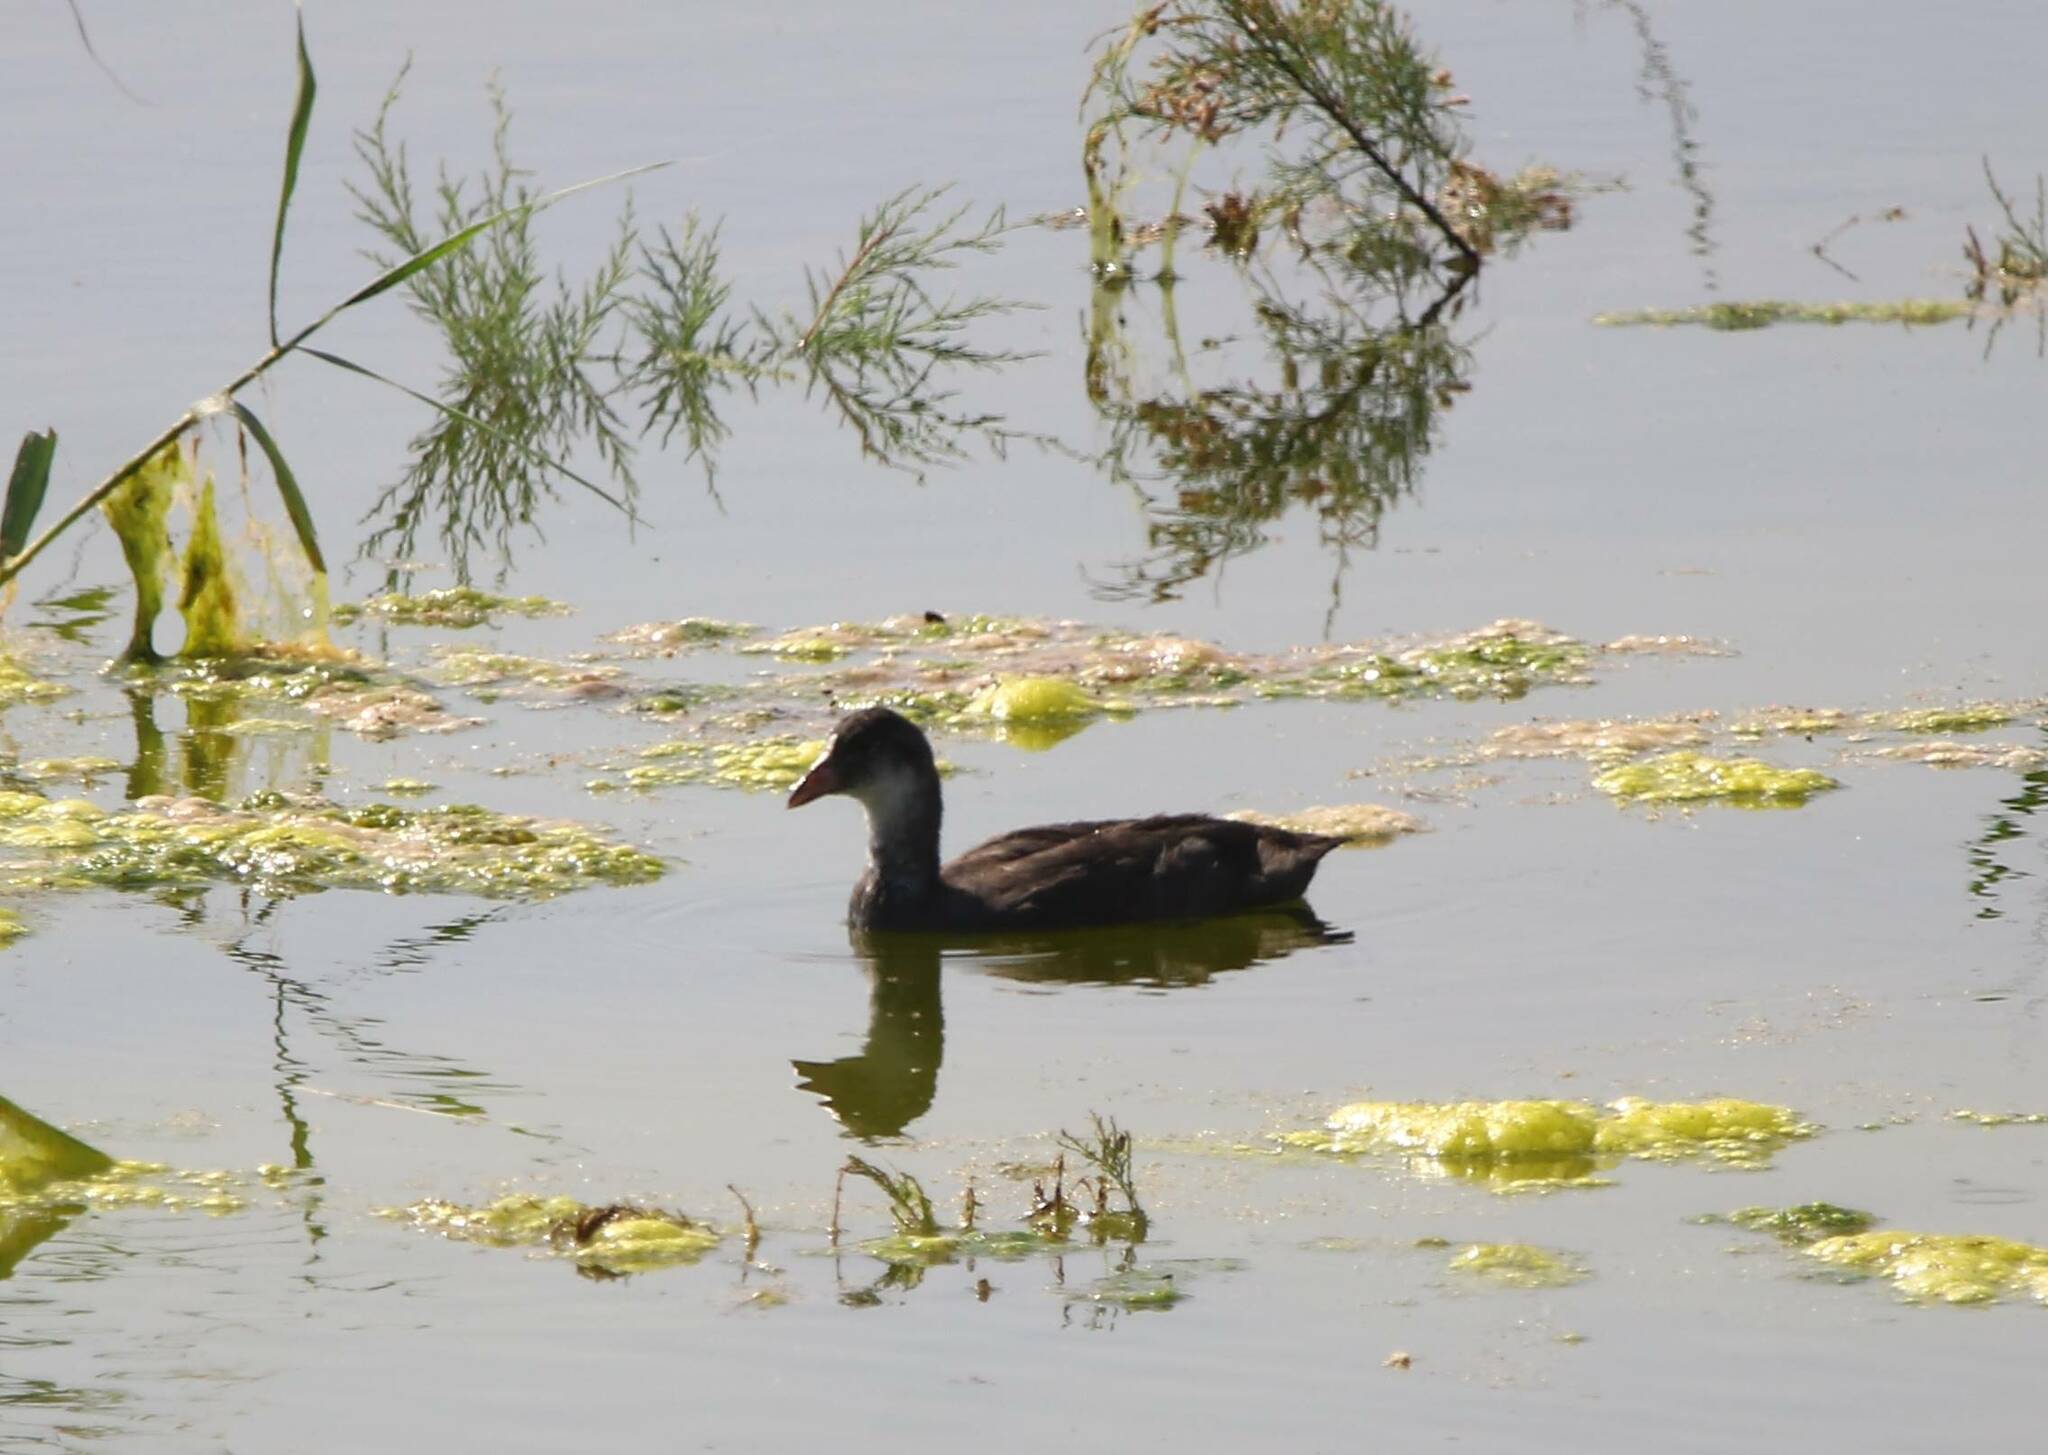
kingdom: Animalia
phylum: Chordata
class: Aves
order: Gruiformes
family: Rallidae
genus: Fulica
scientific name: Fulica atra
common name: Eurasian coot
